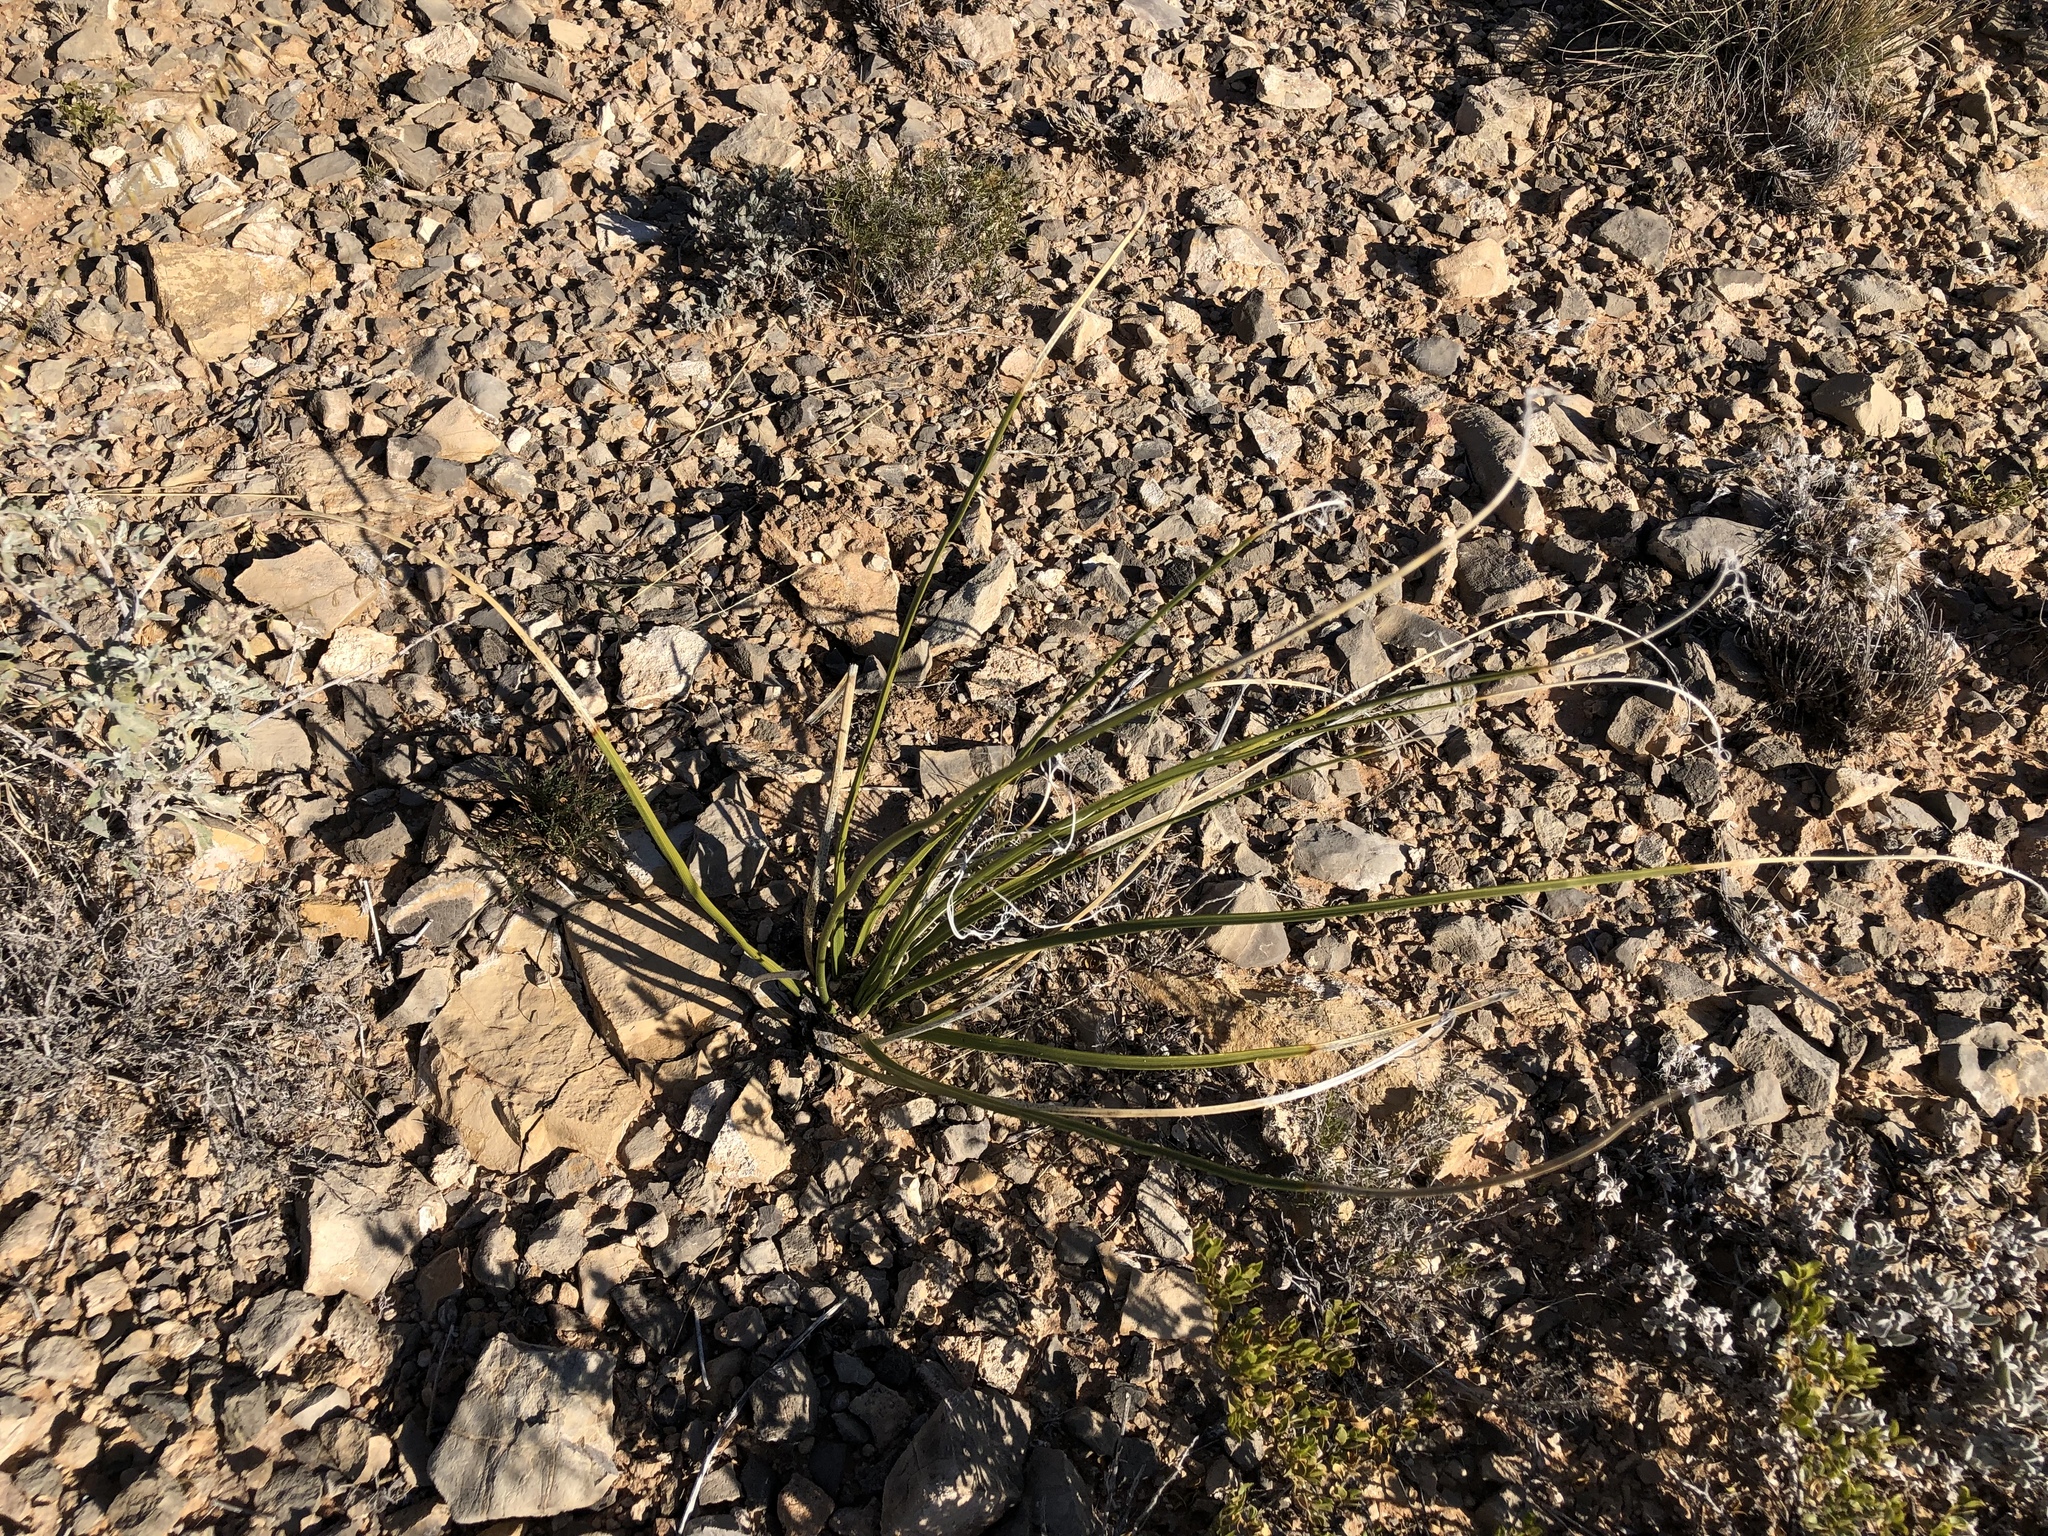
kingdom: Plantae
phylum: Tracheophyta
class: Liliopsida
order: Asparagales
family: Asparagaceae
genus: Nolina
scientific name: Nolina texana
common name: Texas sacahuiste
